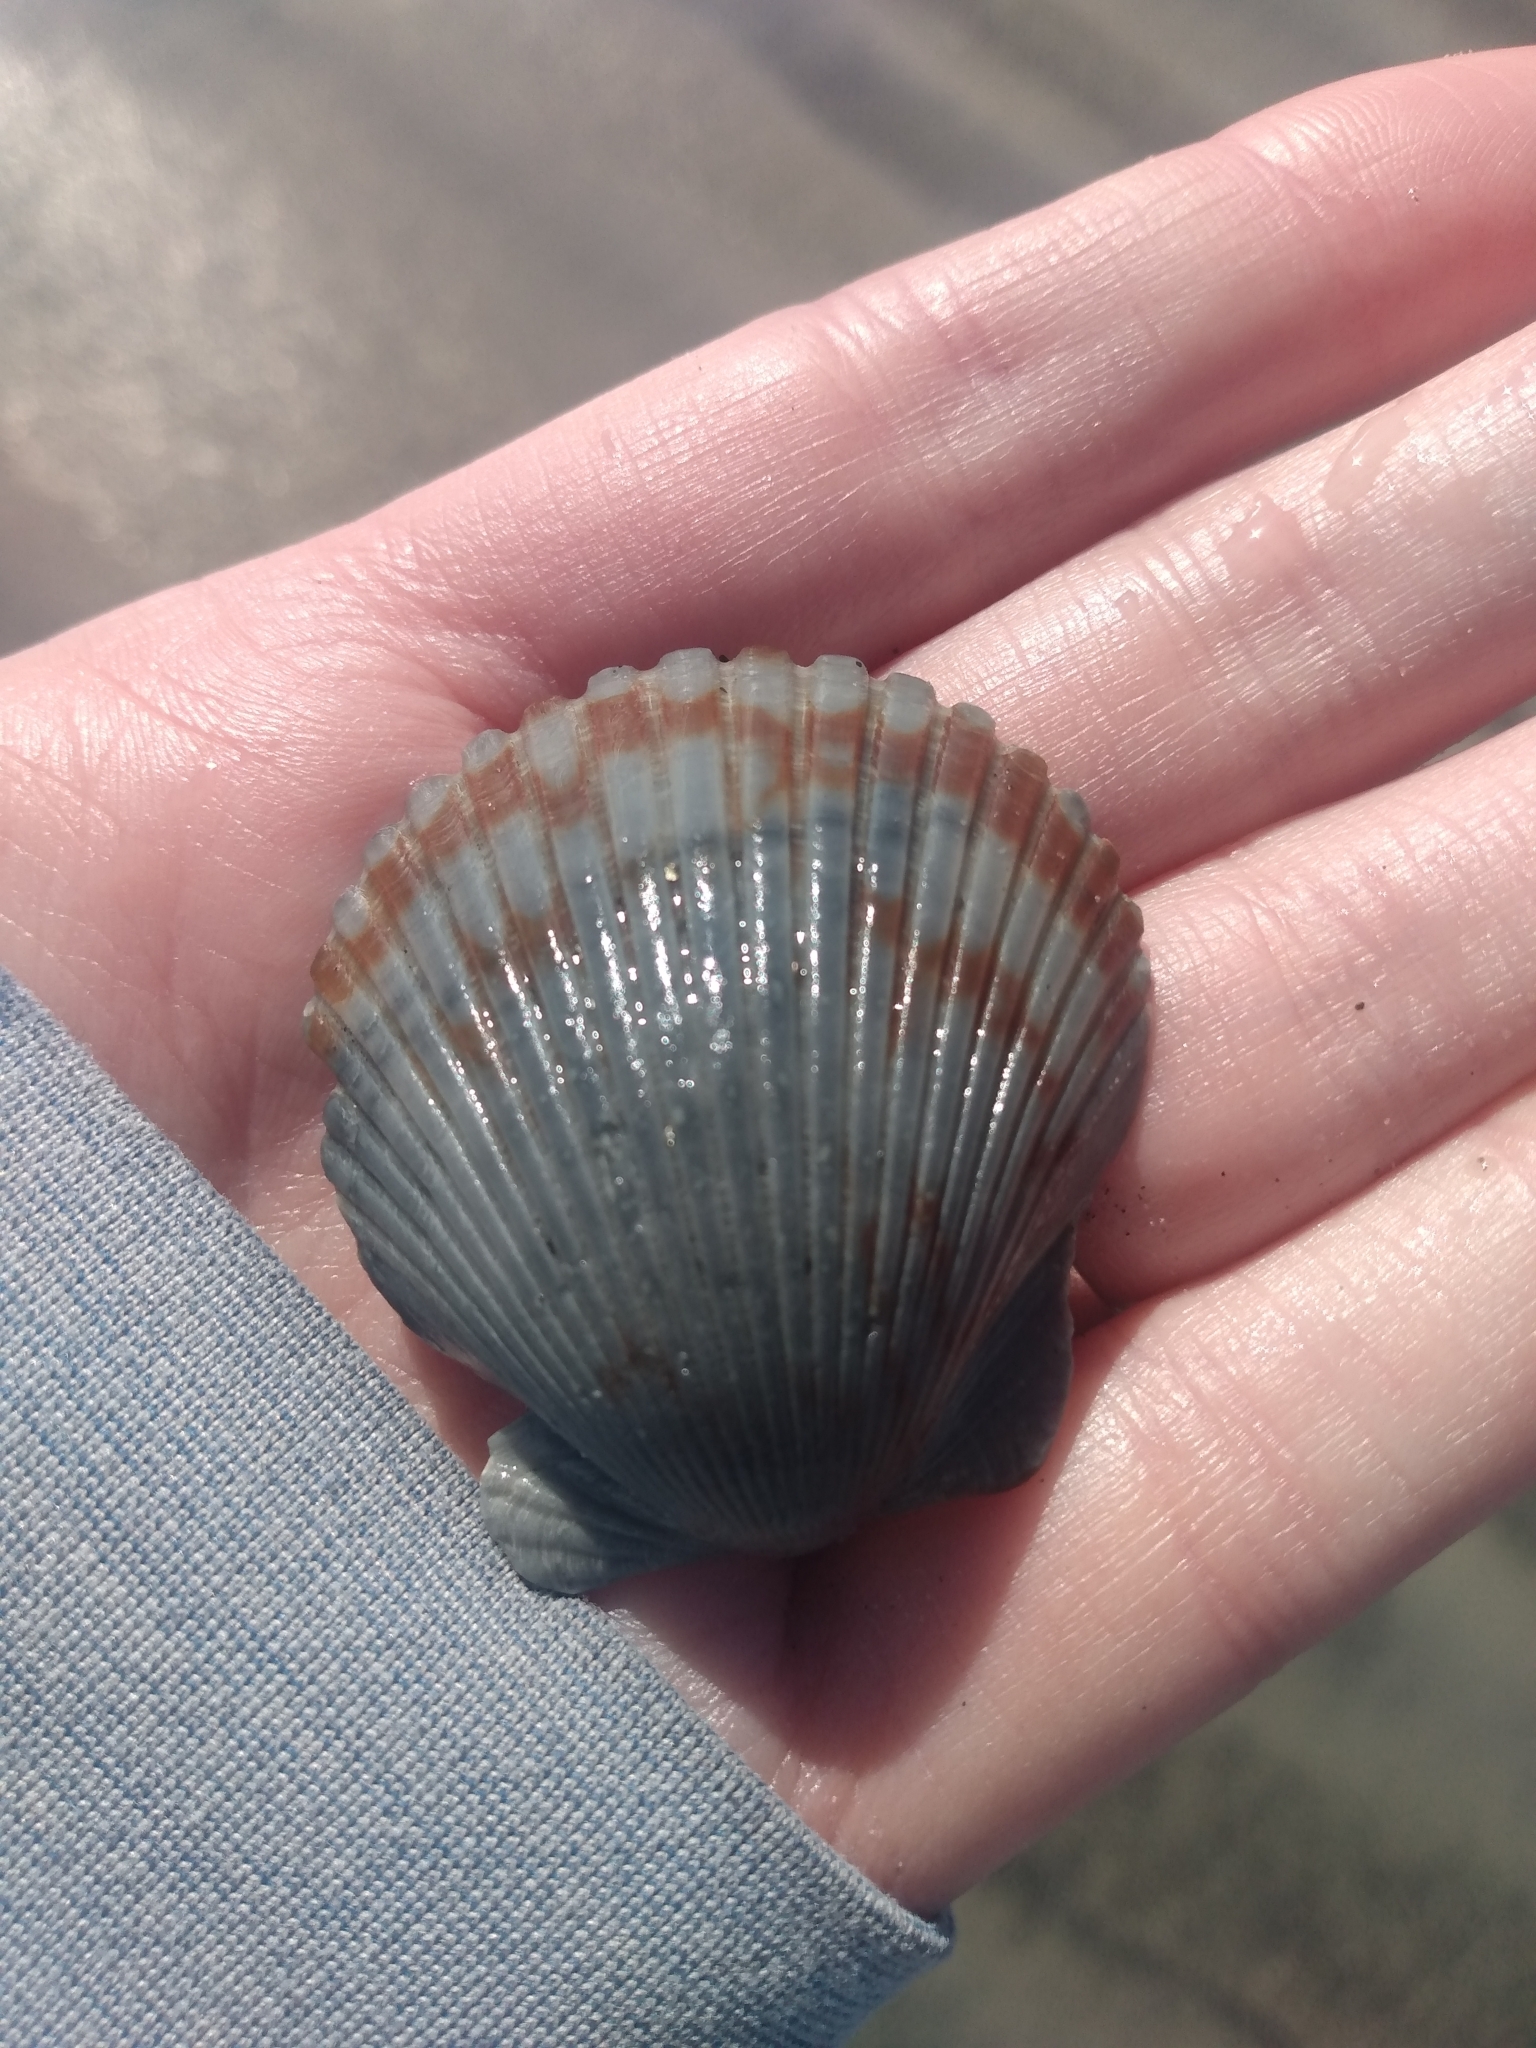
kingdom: Animalia
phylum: Mollusca
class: Bivalvia
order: Pectinida
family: Pectinidae
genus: Argopecten
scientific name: Argopecten ventricosus
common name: Catarina scallop
